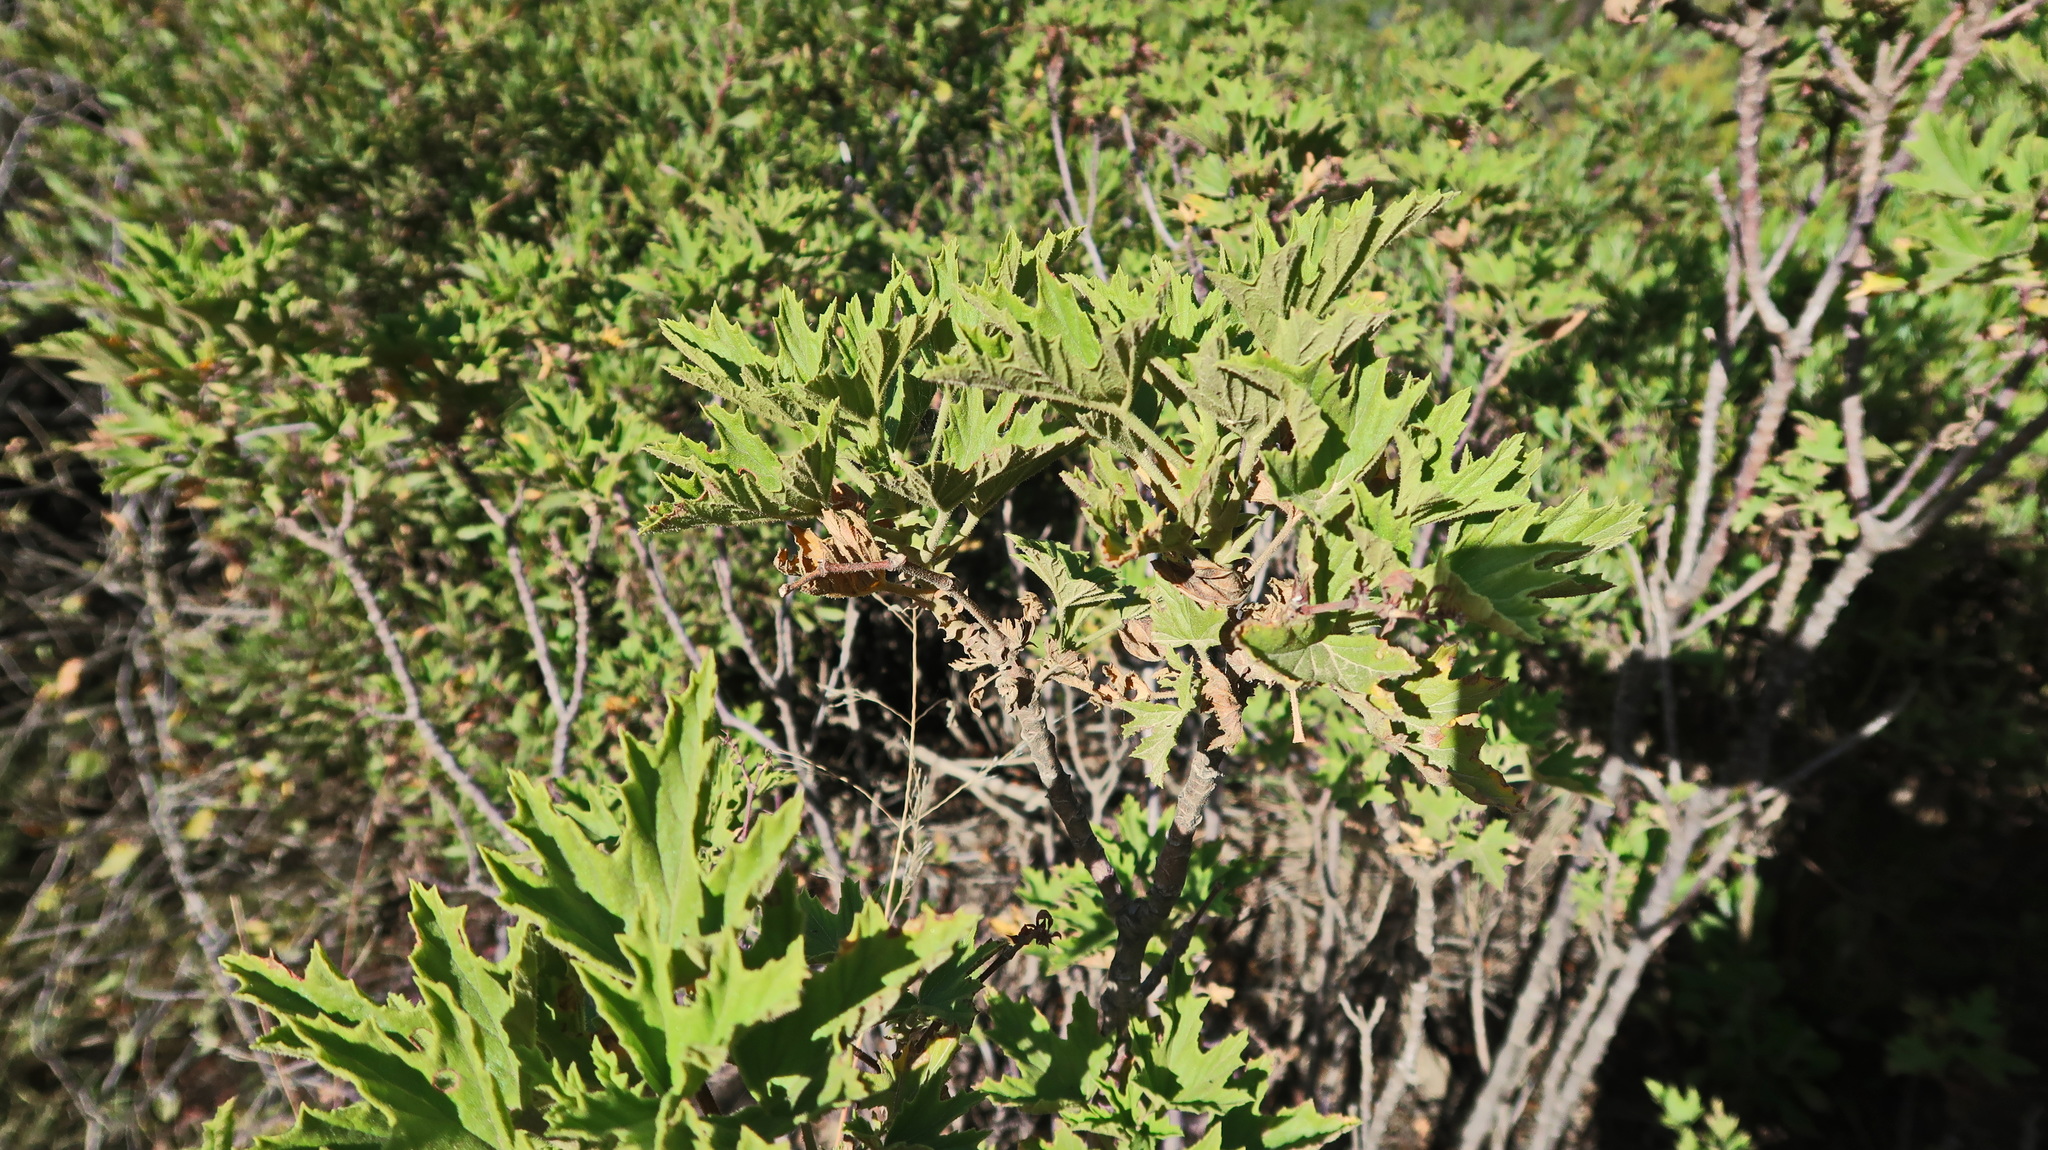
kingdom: Plantae
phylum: Tracheophyta
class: Magnoliopsida
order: Geraniales
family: Geraniaceae
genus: Pelargonium
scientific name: Pelargonium scabrum
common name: Apricot geranium
